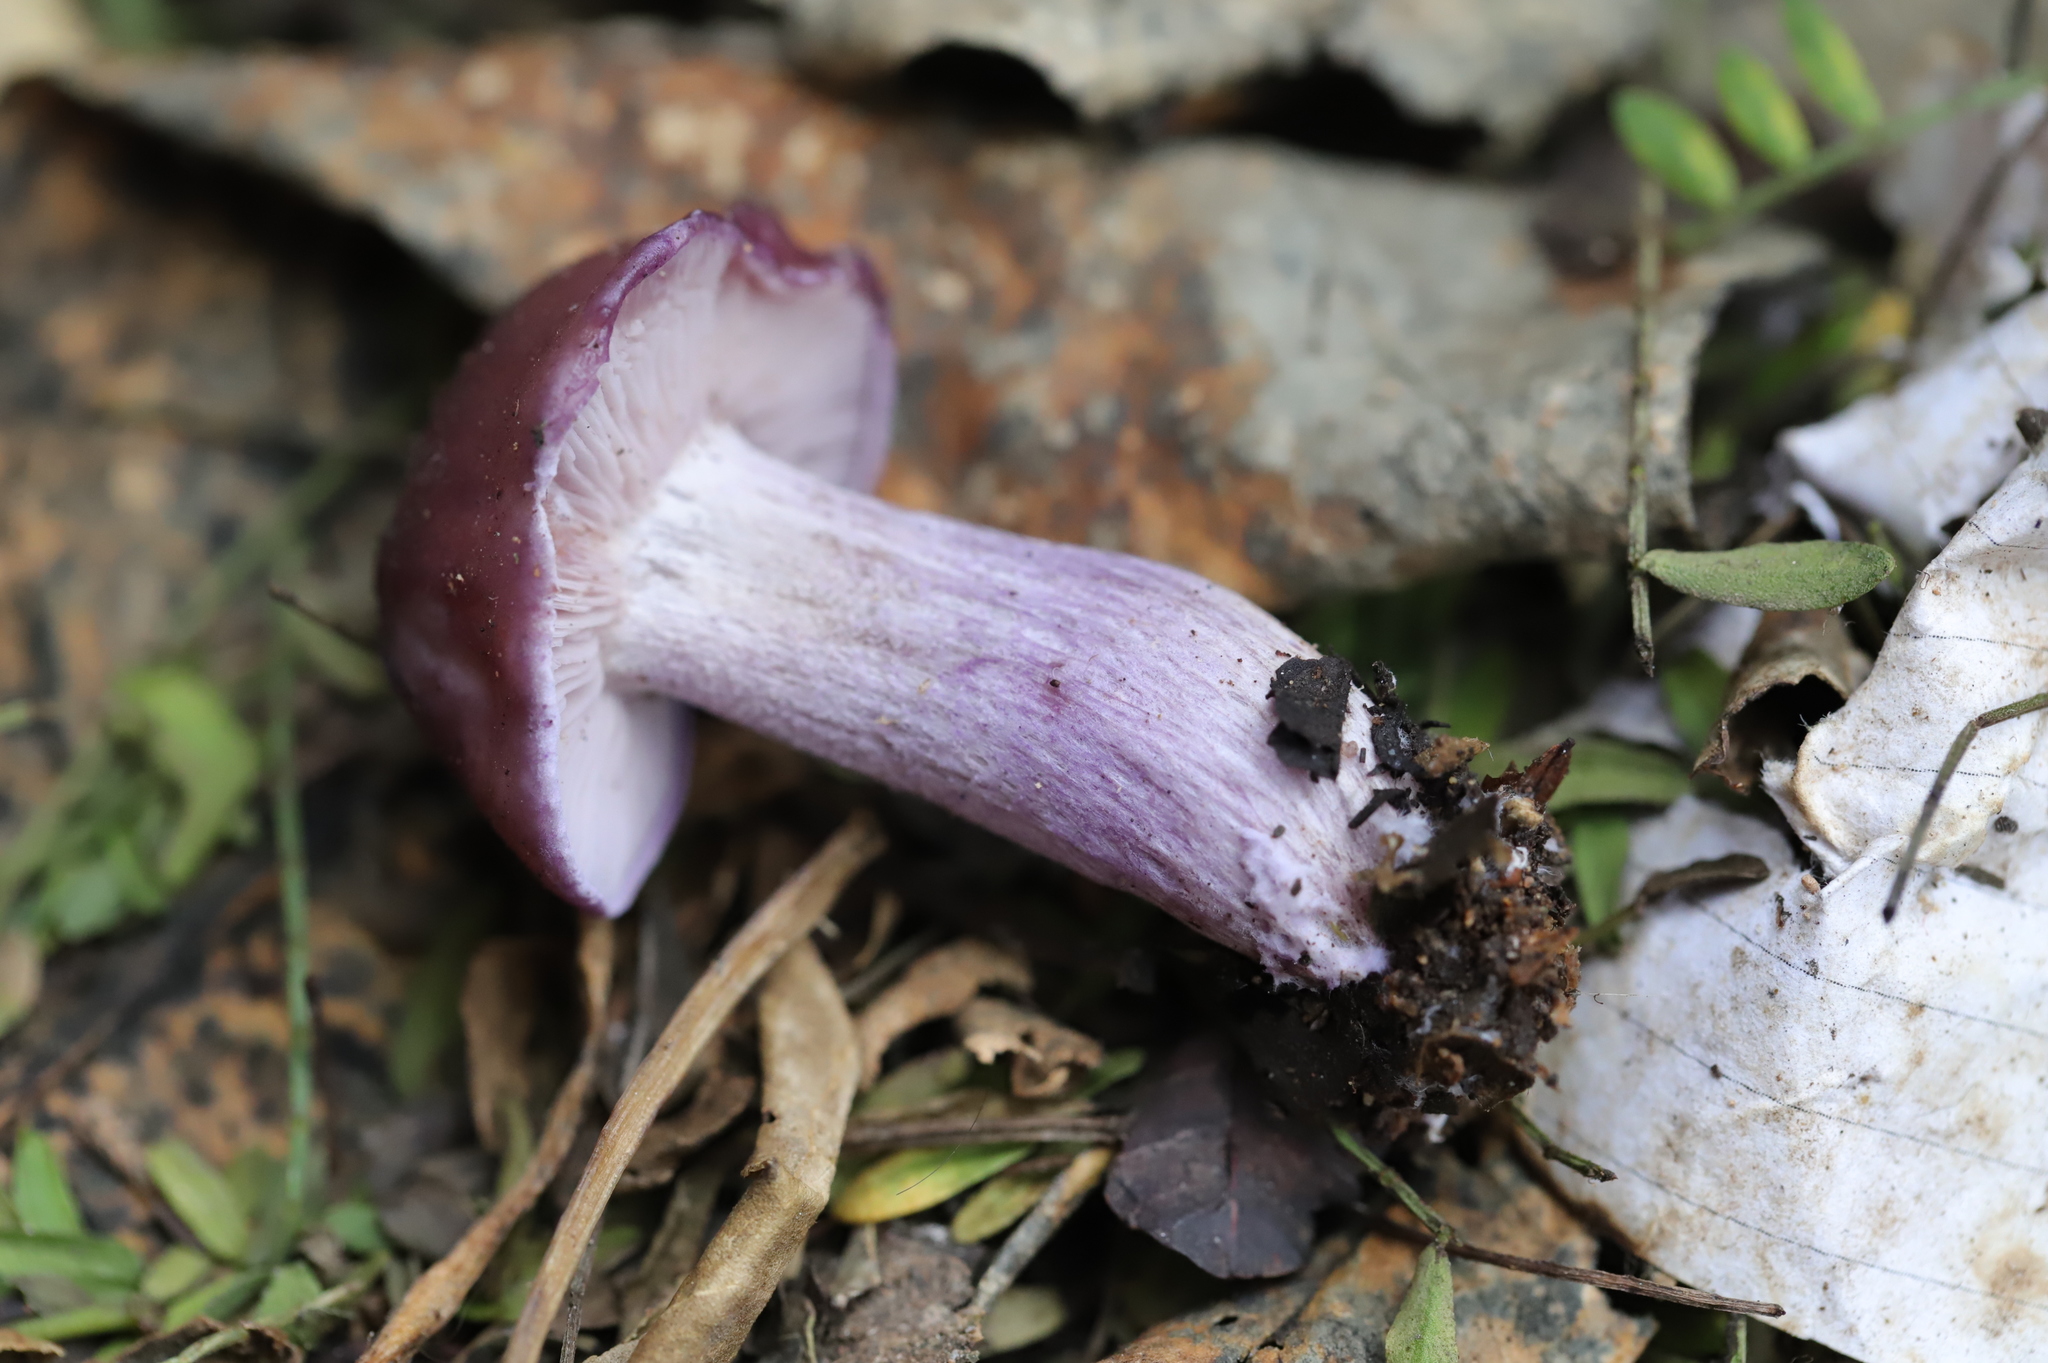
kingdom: Fungi
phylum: Basidiomycota
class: Agaricomycetes
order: Agaricales
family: Tricholomataceae
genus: Collybia
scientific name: Collybia
